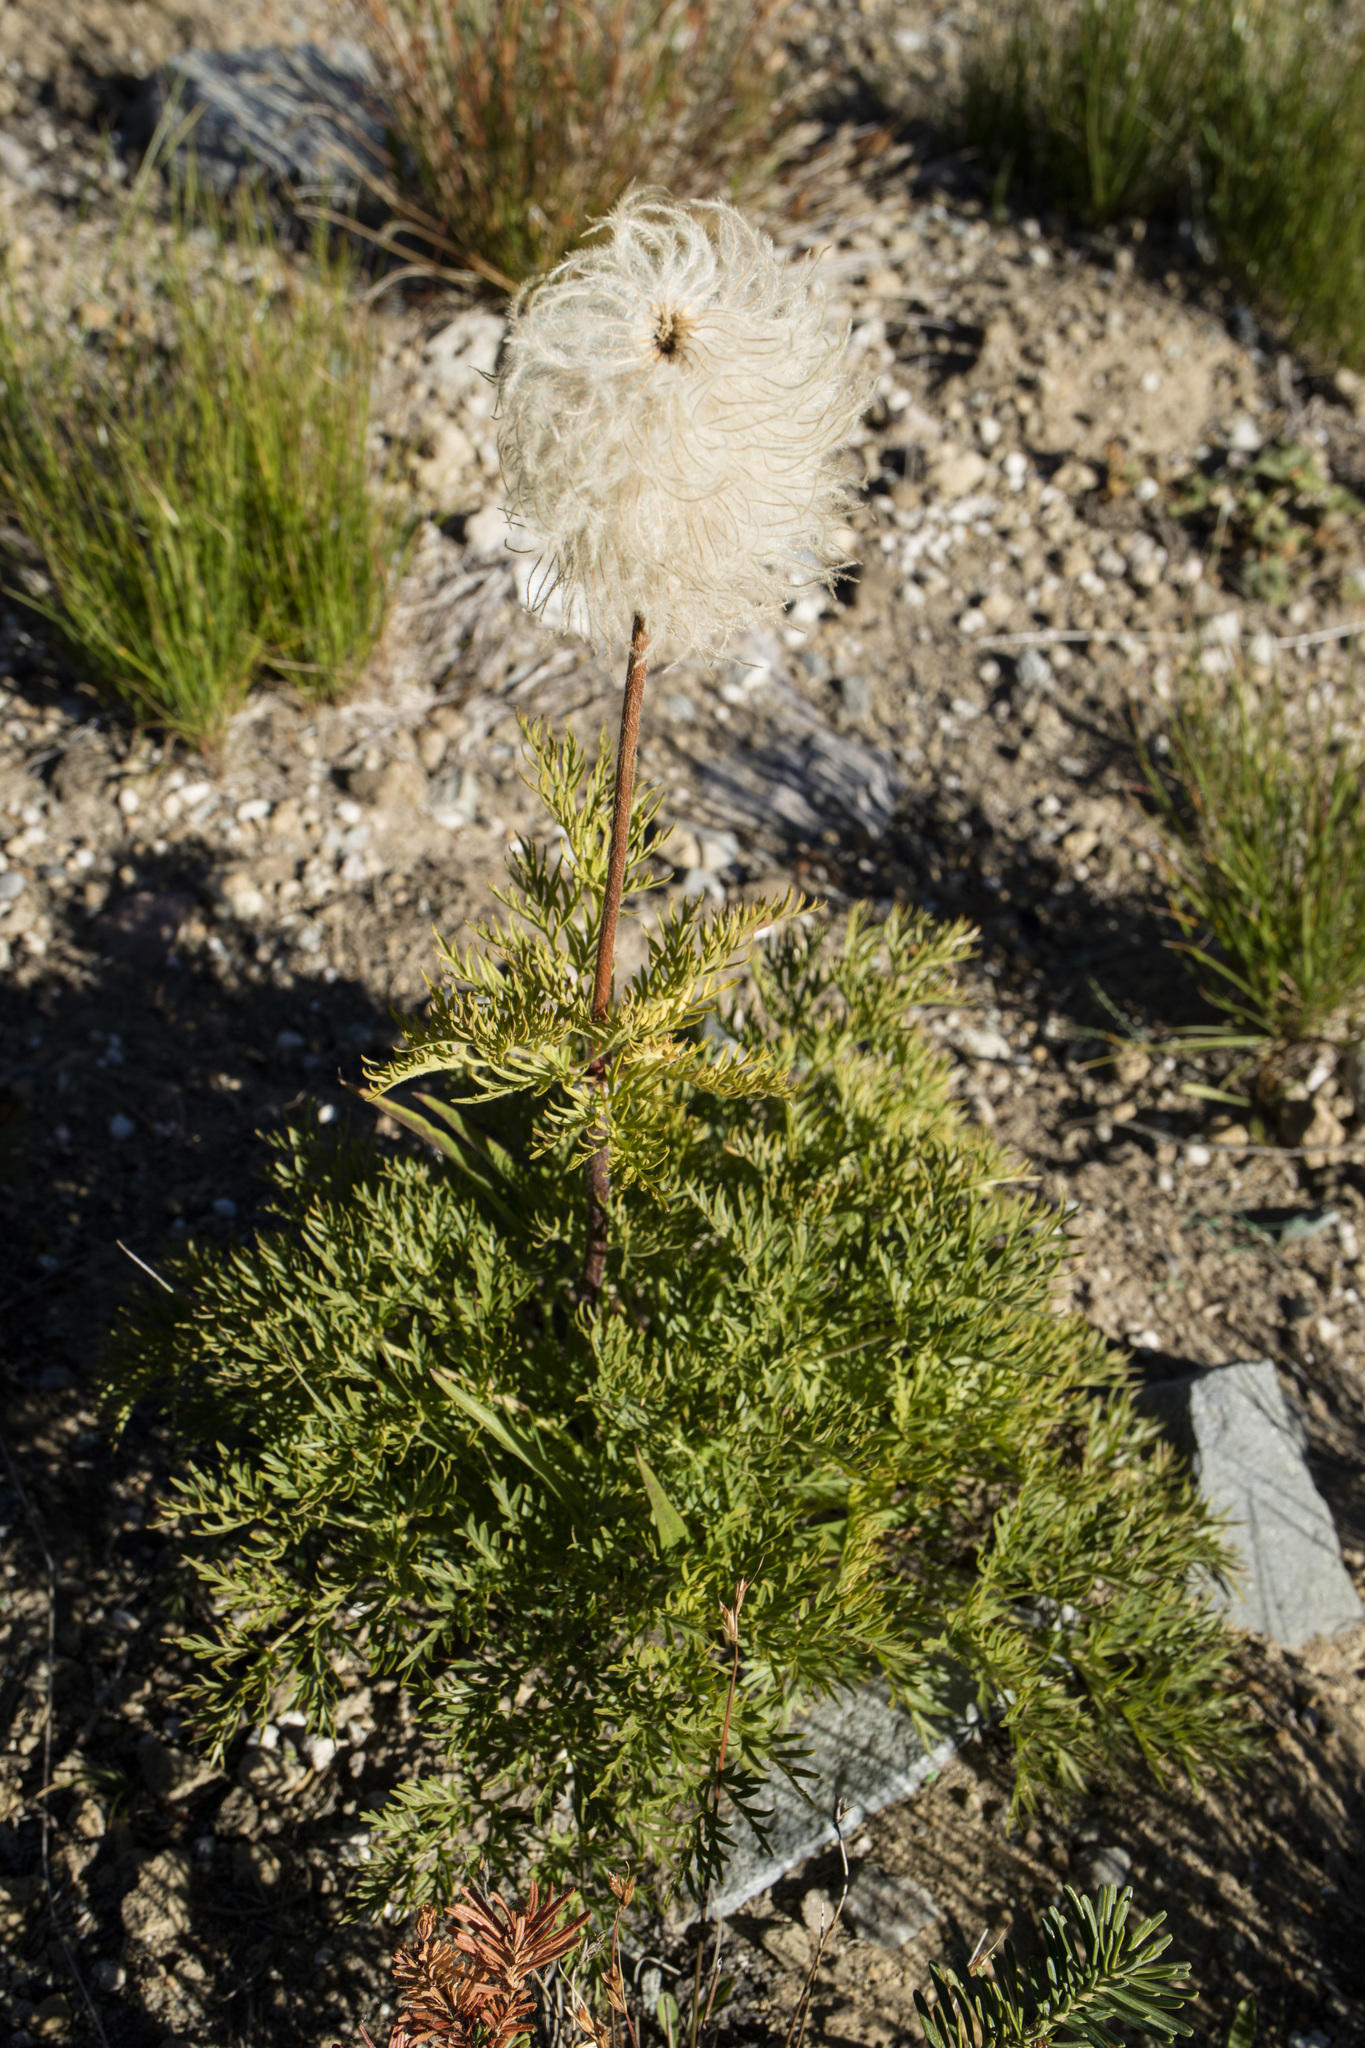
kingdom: Plantae
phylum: Tracheophyta
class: Magnoliopsida
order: Ranunculales
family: Ranunculaceae
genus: Pulsatilla
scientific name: Pulsatilla occidentalis
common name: Mountain pasqueflower
